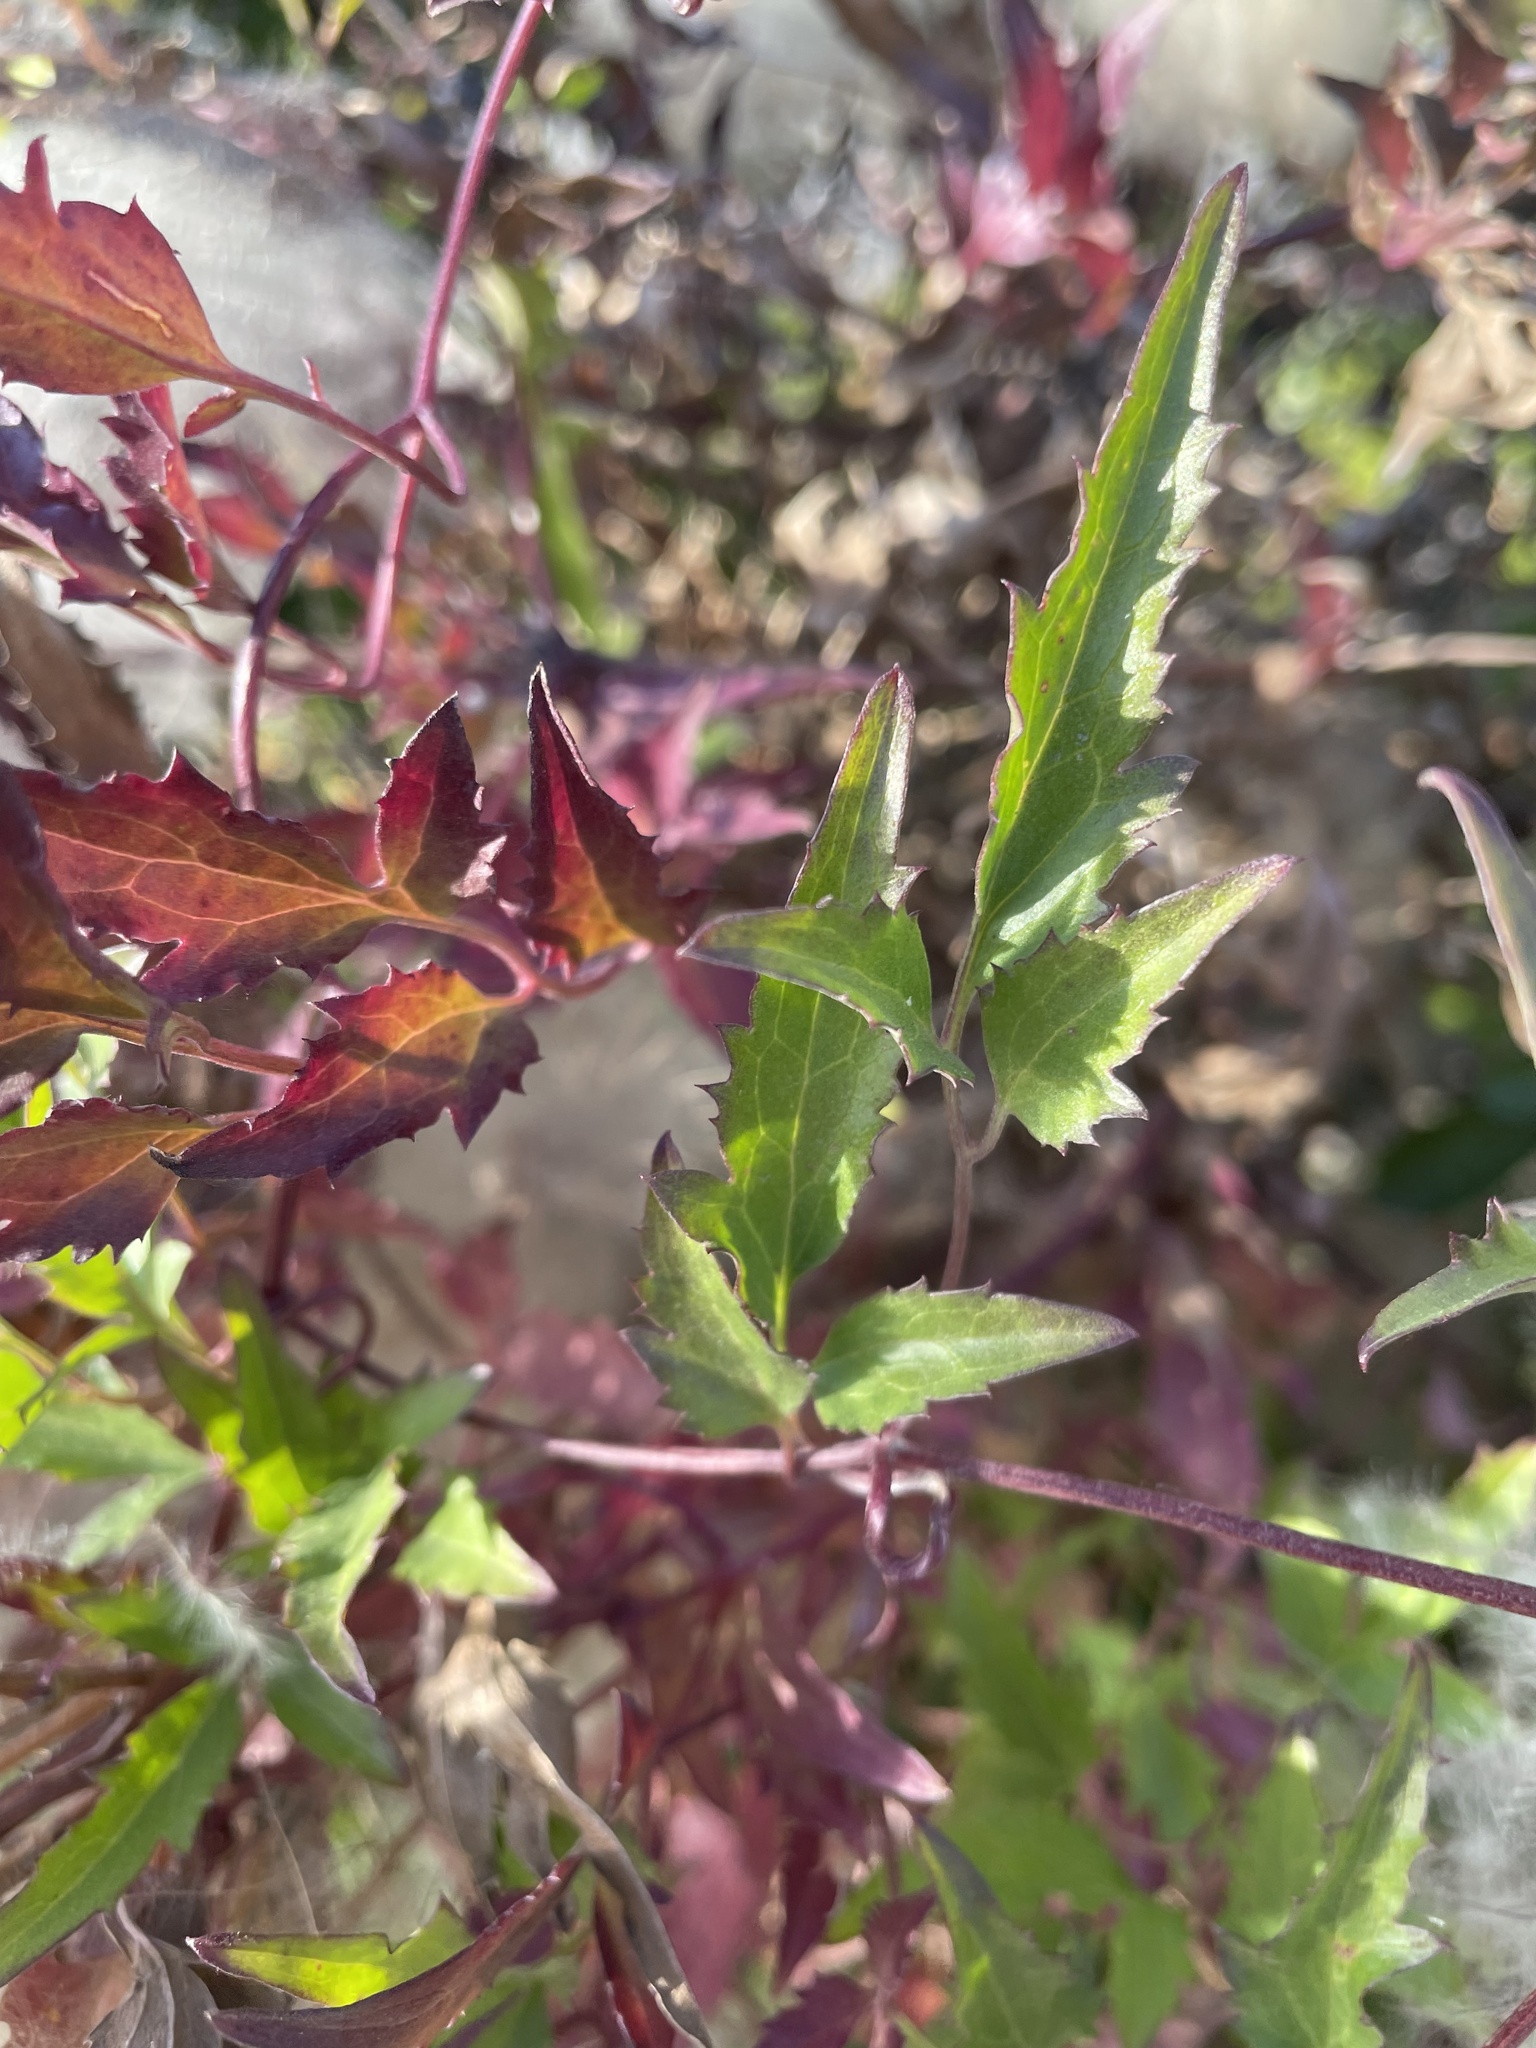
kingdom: Plantae
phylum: Tracheophyta
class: Magnoliopsida
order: Ranunculales
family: Ranunculaceae
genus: Clematis
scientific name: Clematis tangutica
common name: Orange-peel clematis
